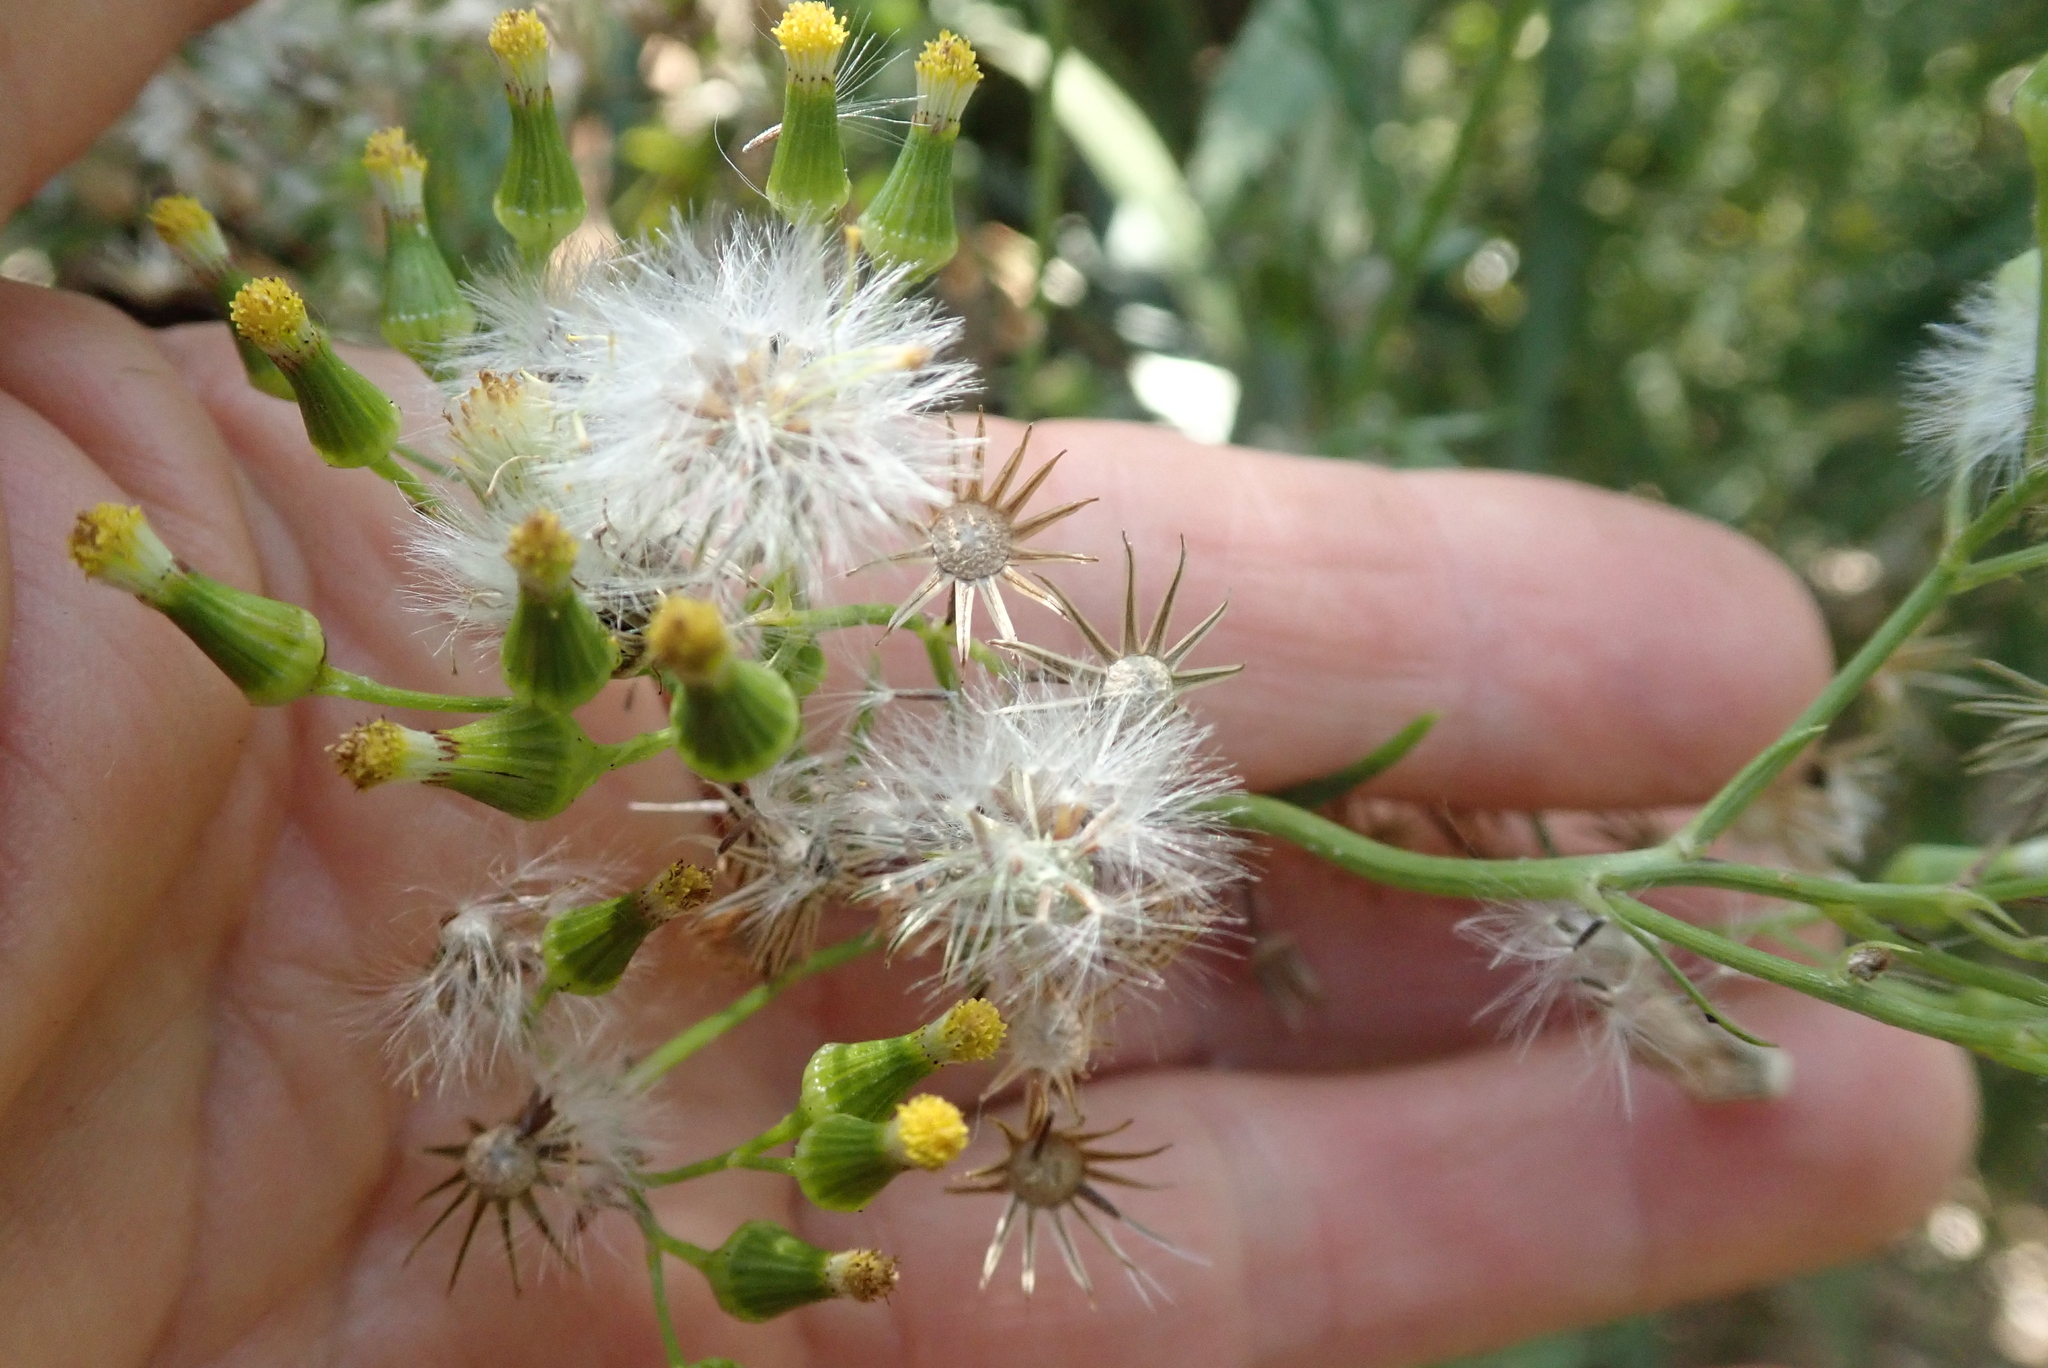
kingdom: Plantae
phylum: Tracheophyta
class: Magnoliopsida
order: Asterales
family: Asteraceae
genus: Senecio
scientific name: Senecio esleri
